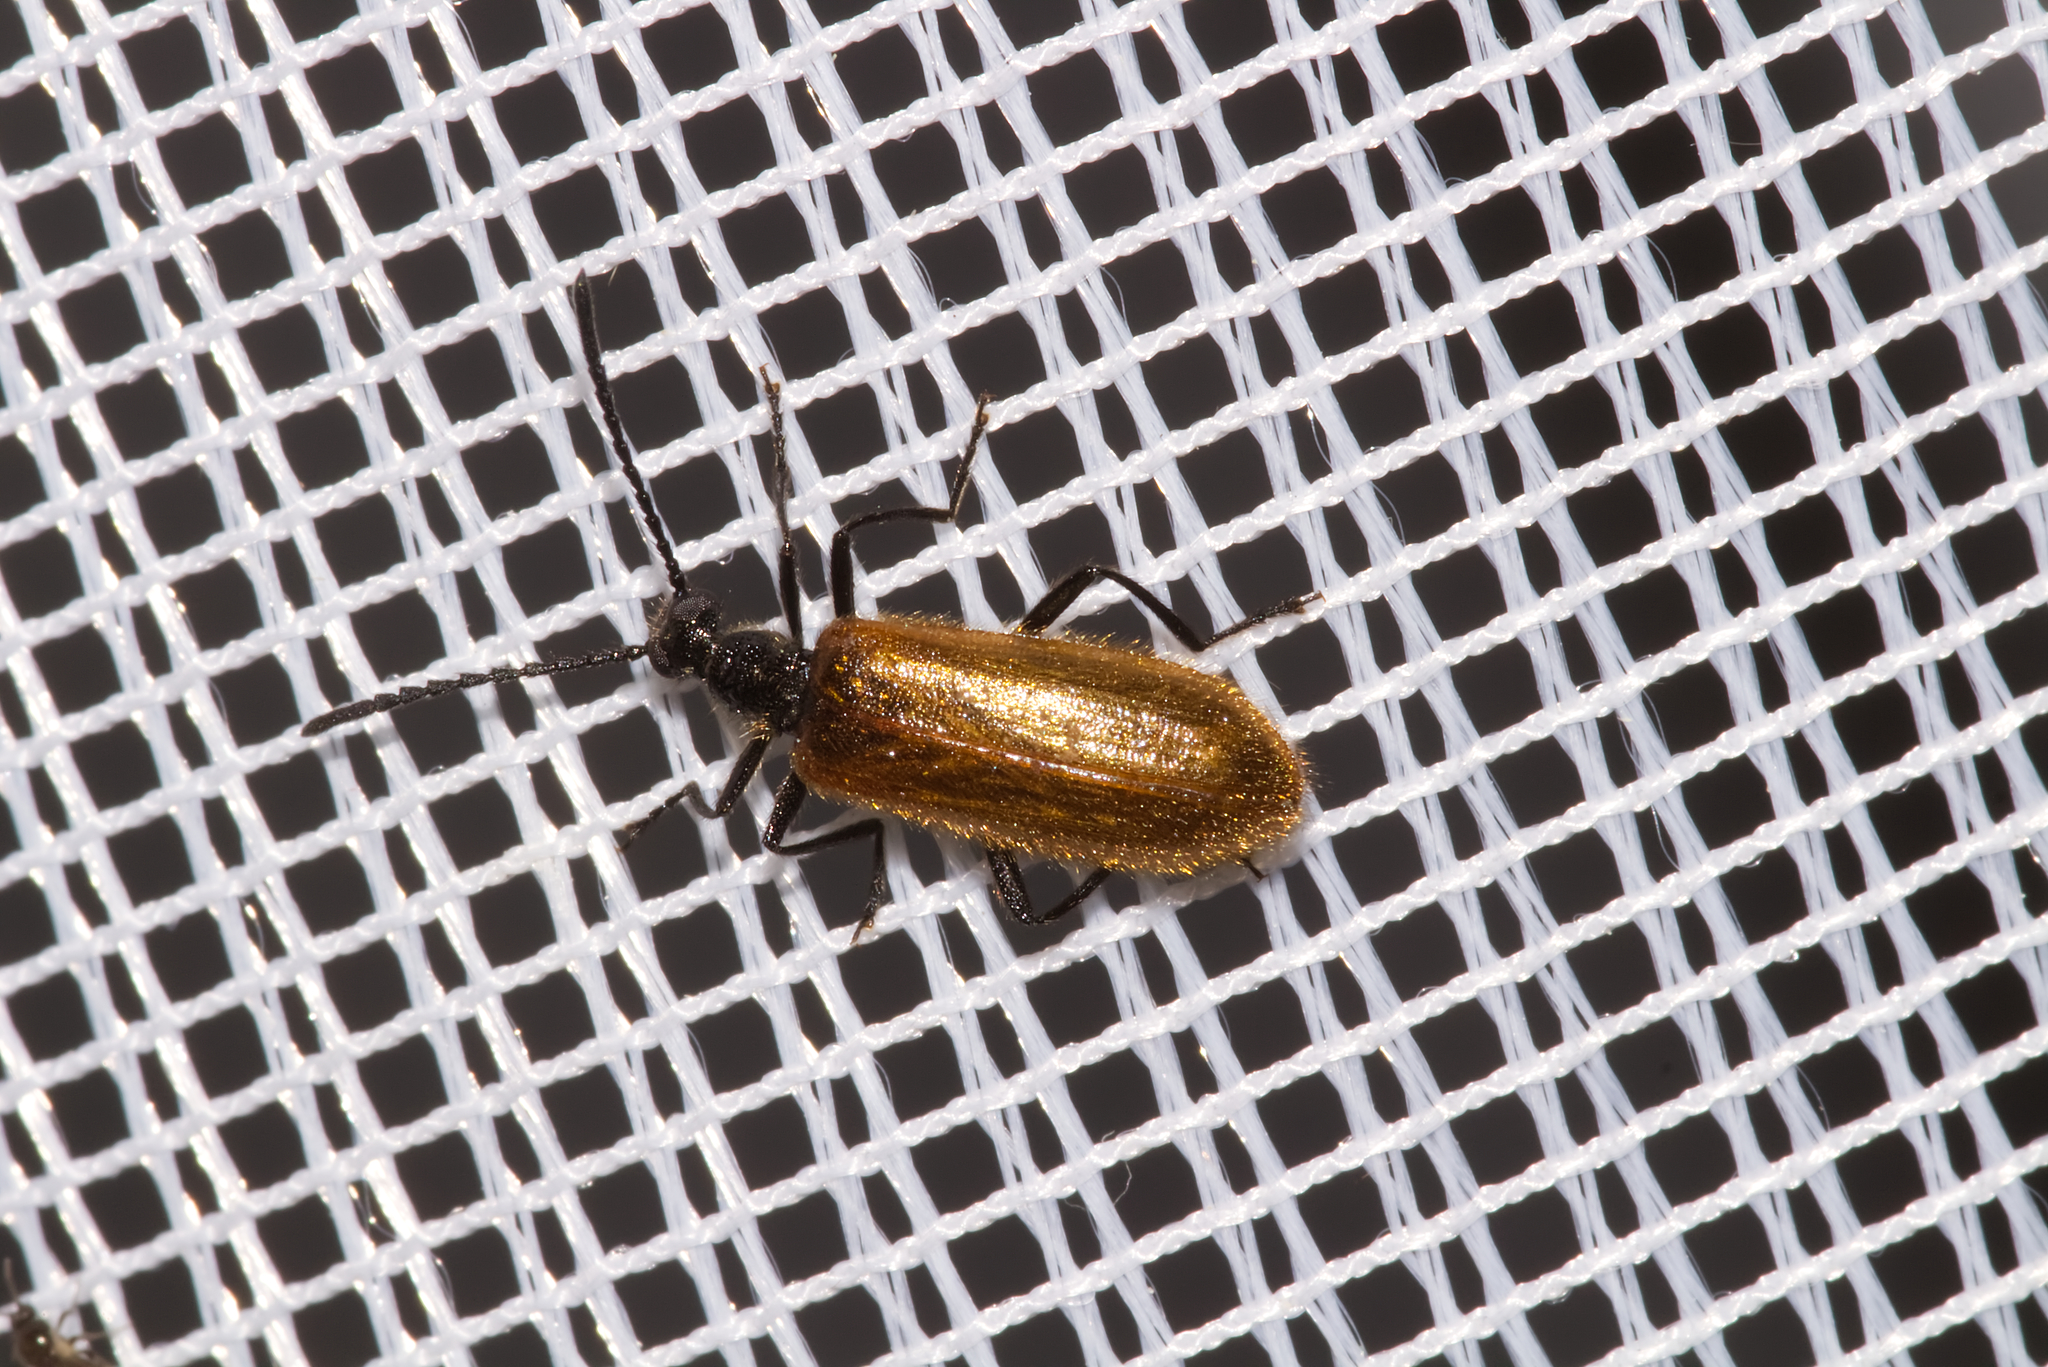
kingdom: Animalia
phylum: Arthropoda
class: Insecta
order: Coleoptera
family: Tenebrionidae
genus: Lagria
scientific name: Lagria hirta
